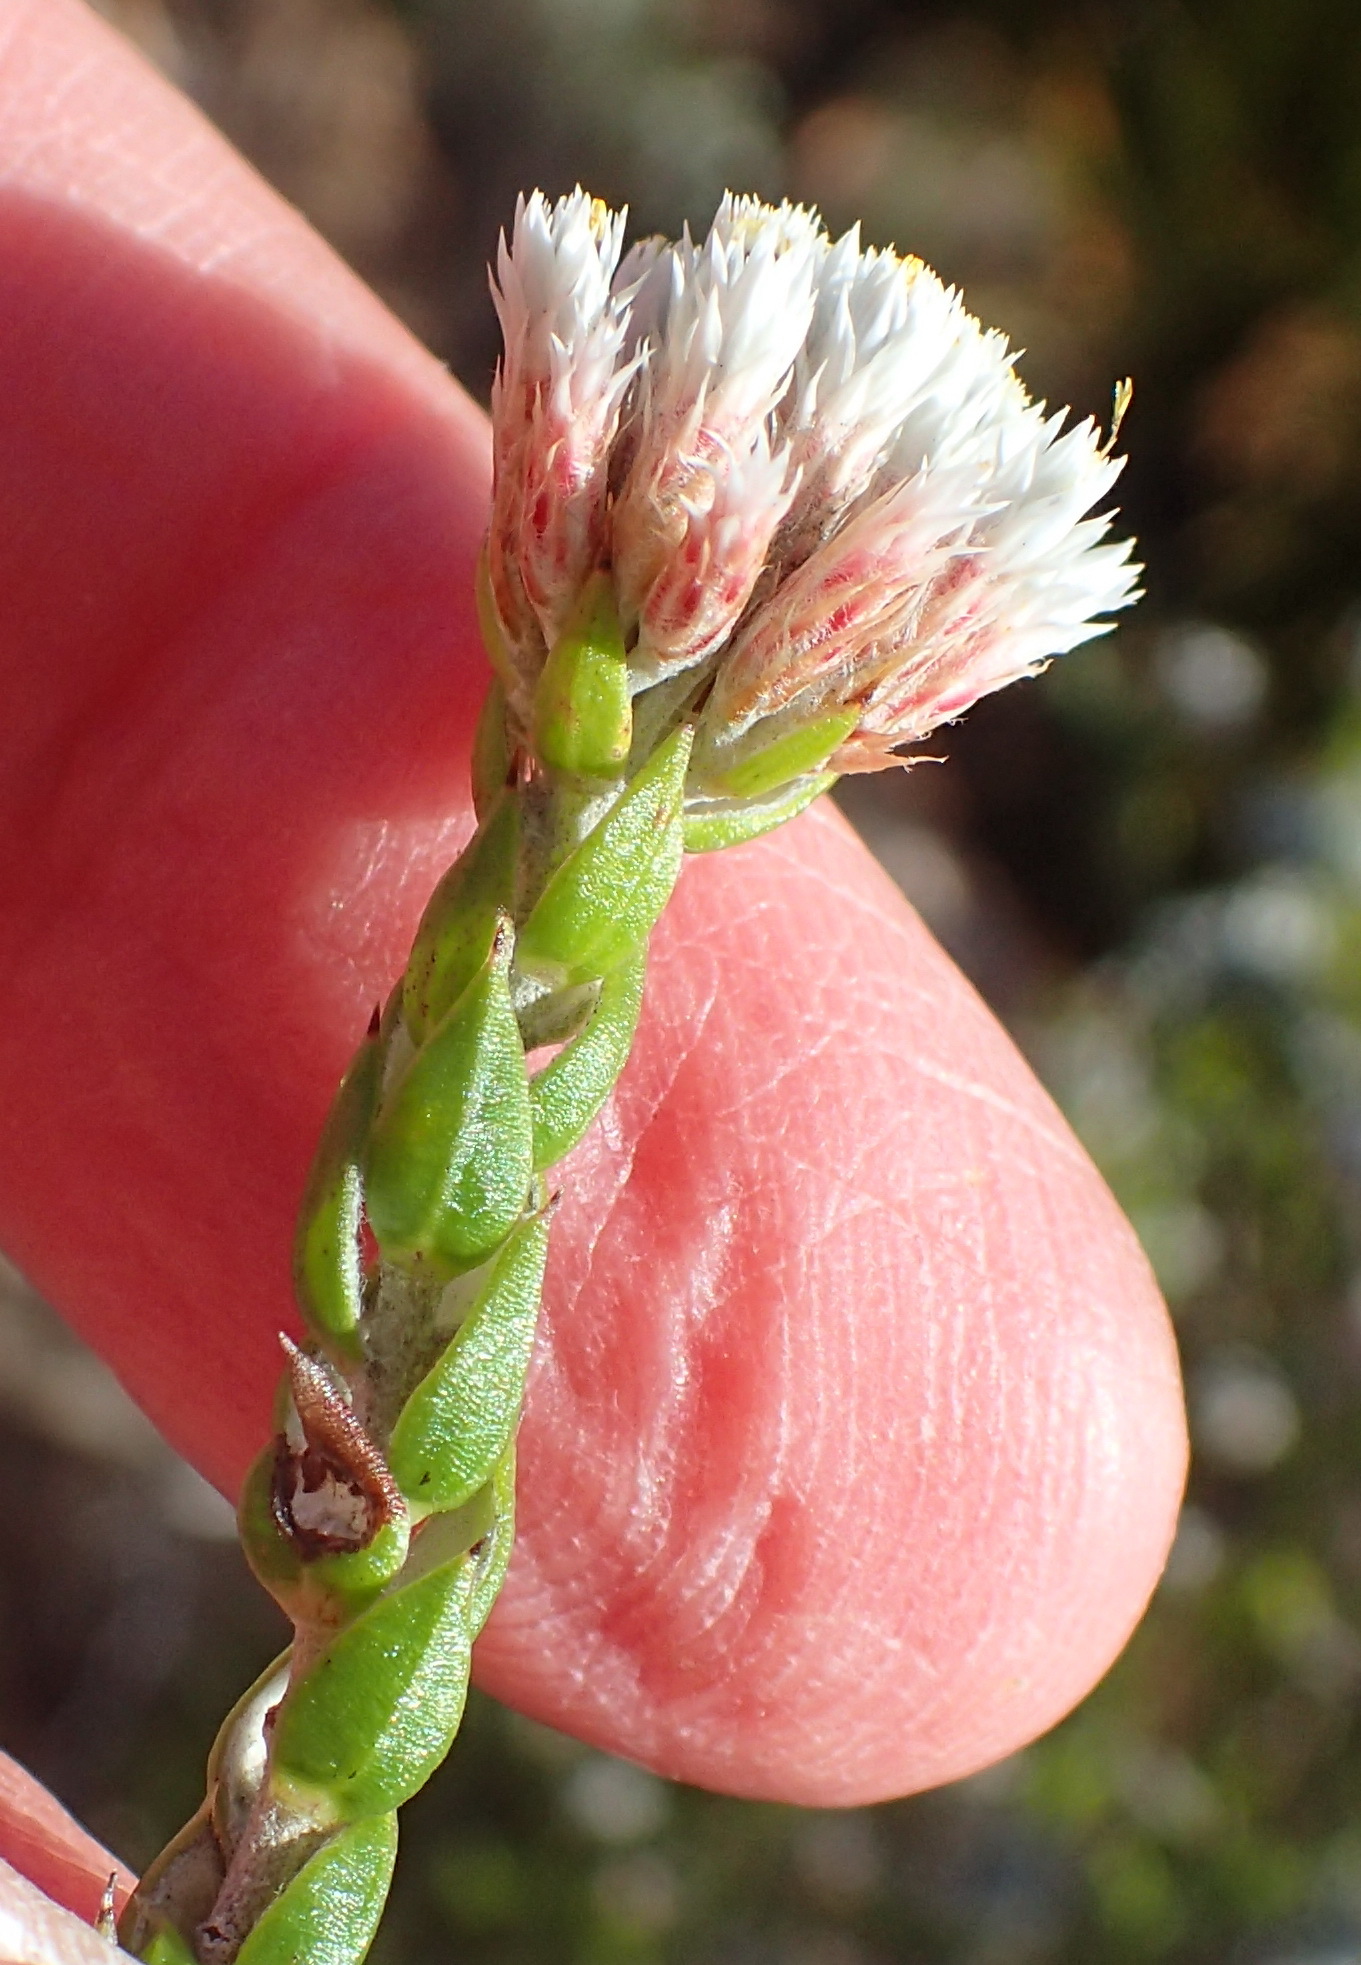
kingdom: Plantae
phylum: Tracheophyta
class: Magnoliopsida
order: Asterales
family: Asteraceae
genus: Metalasia
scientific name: Metalasia pulcherrima
